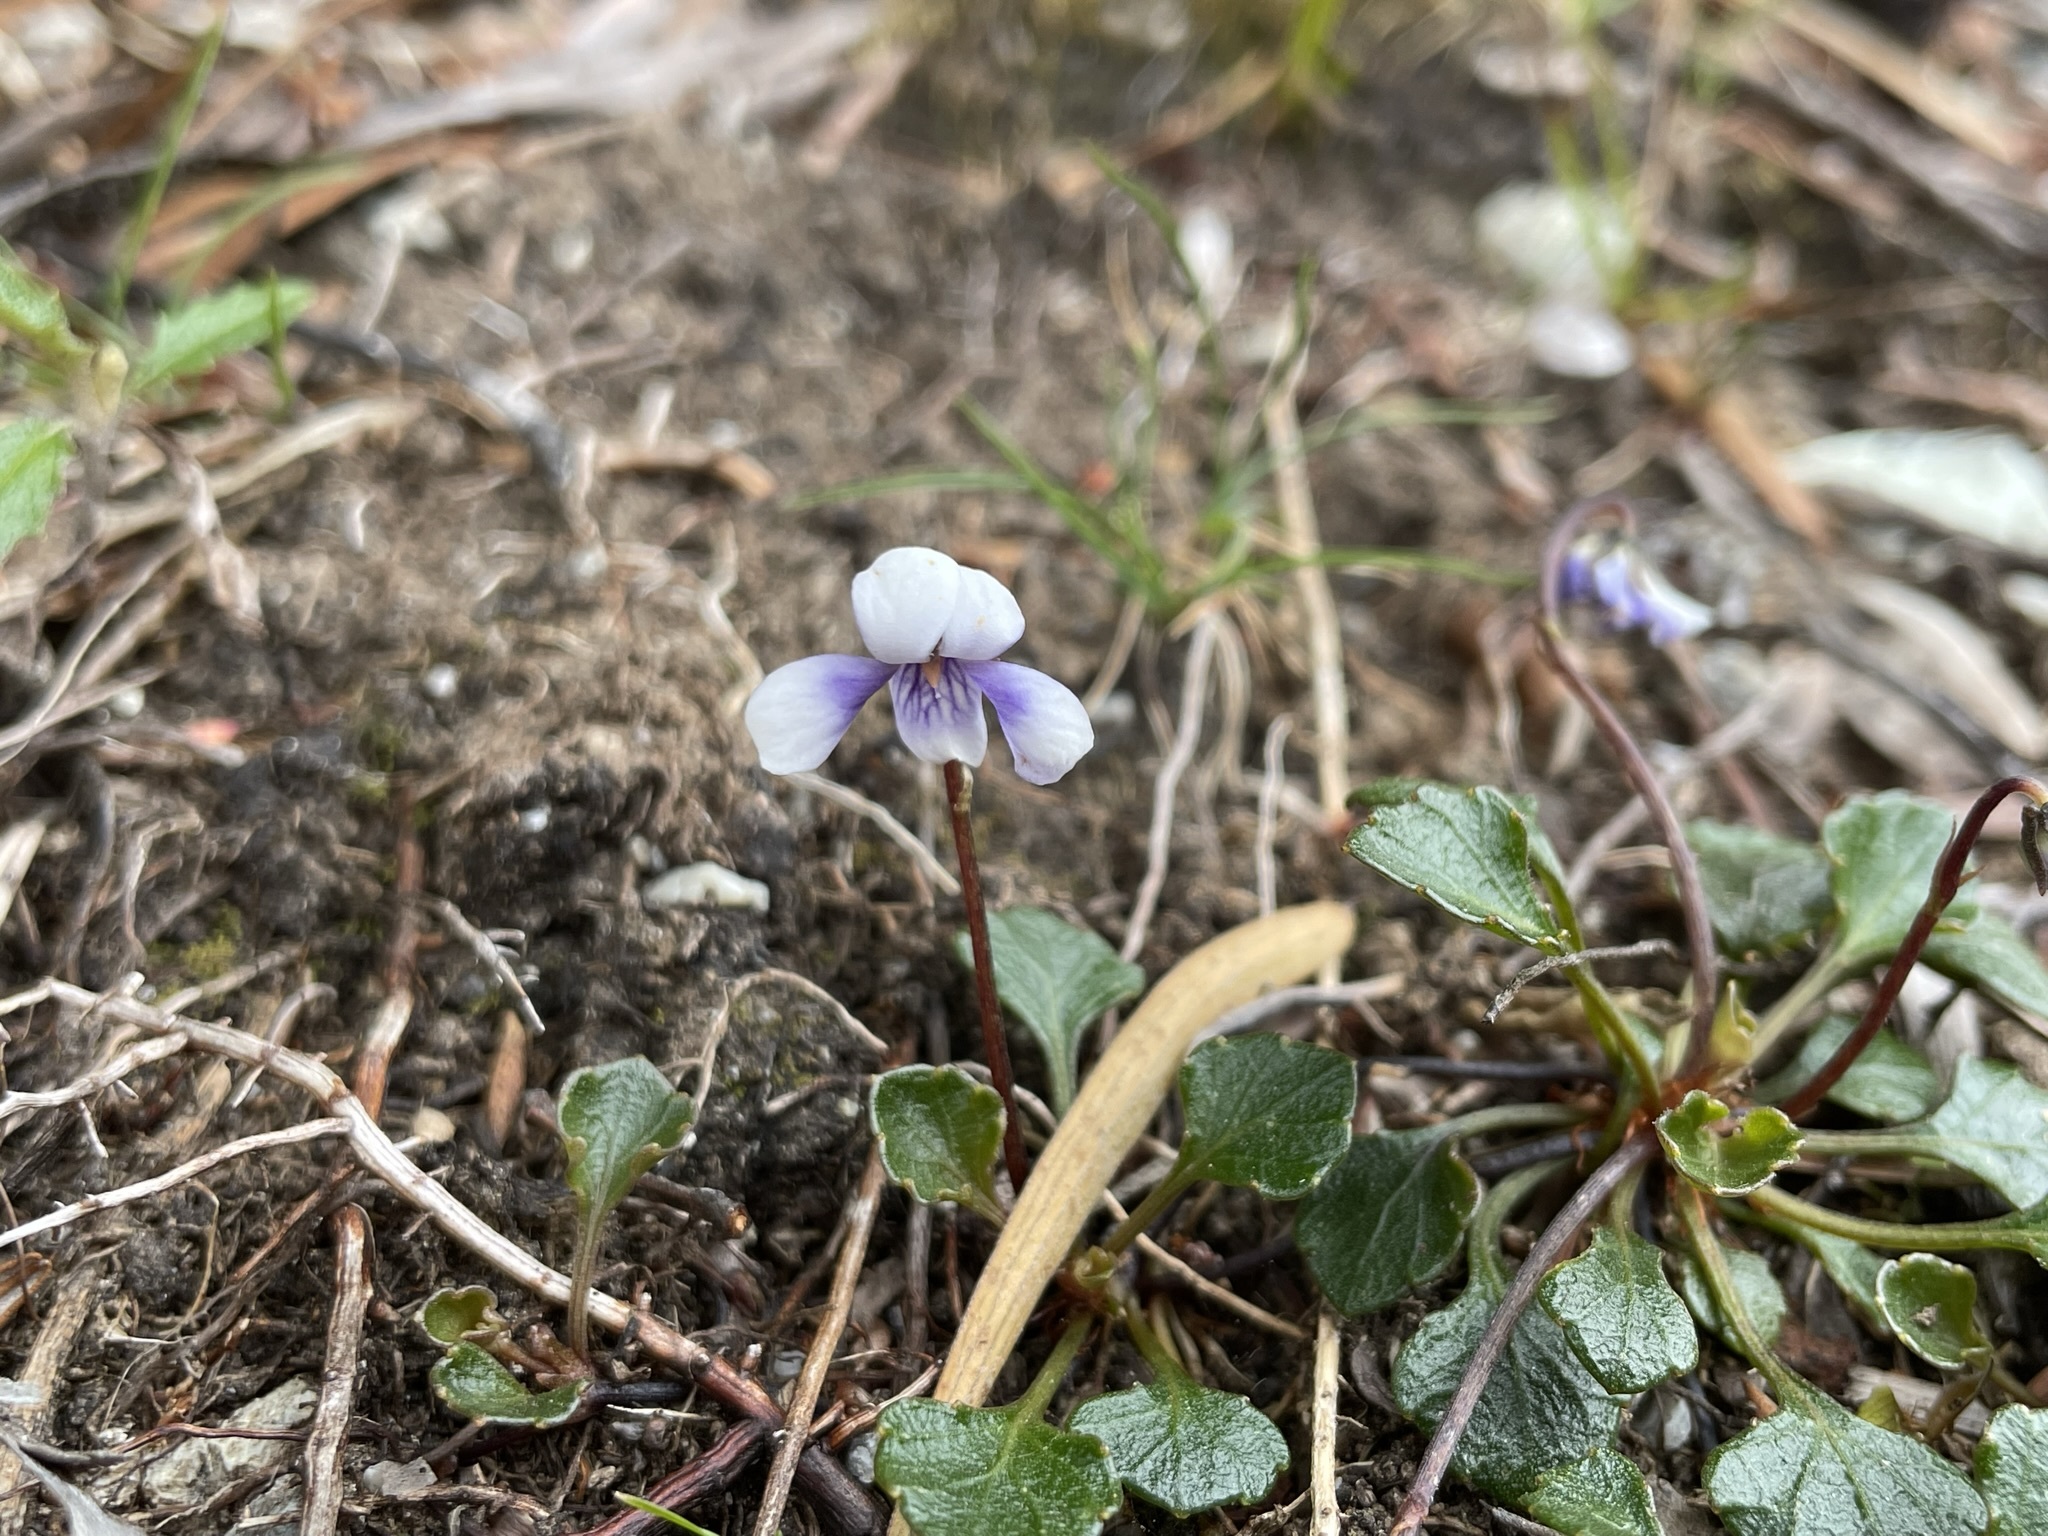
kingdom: Plantae
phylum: Tracheophyta
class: Magnoliopsida
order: Malpighiales
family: Violaceae
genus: Viola
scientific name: Viola serpentinicola
